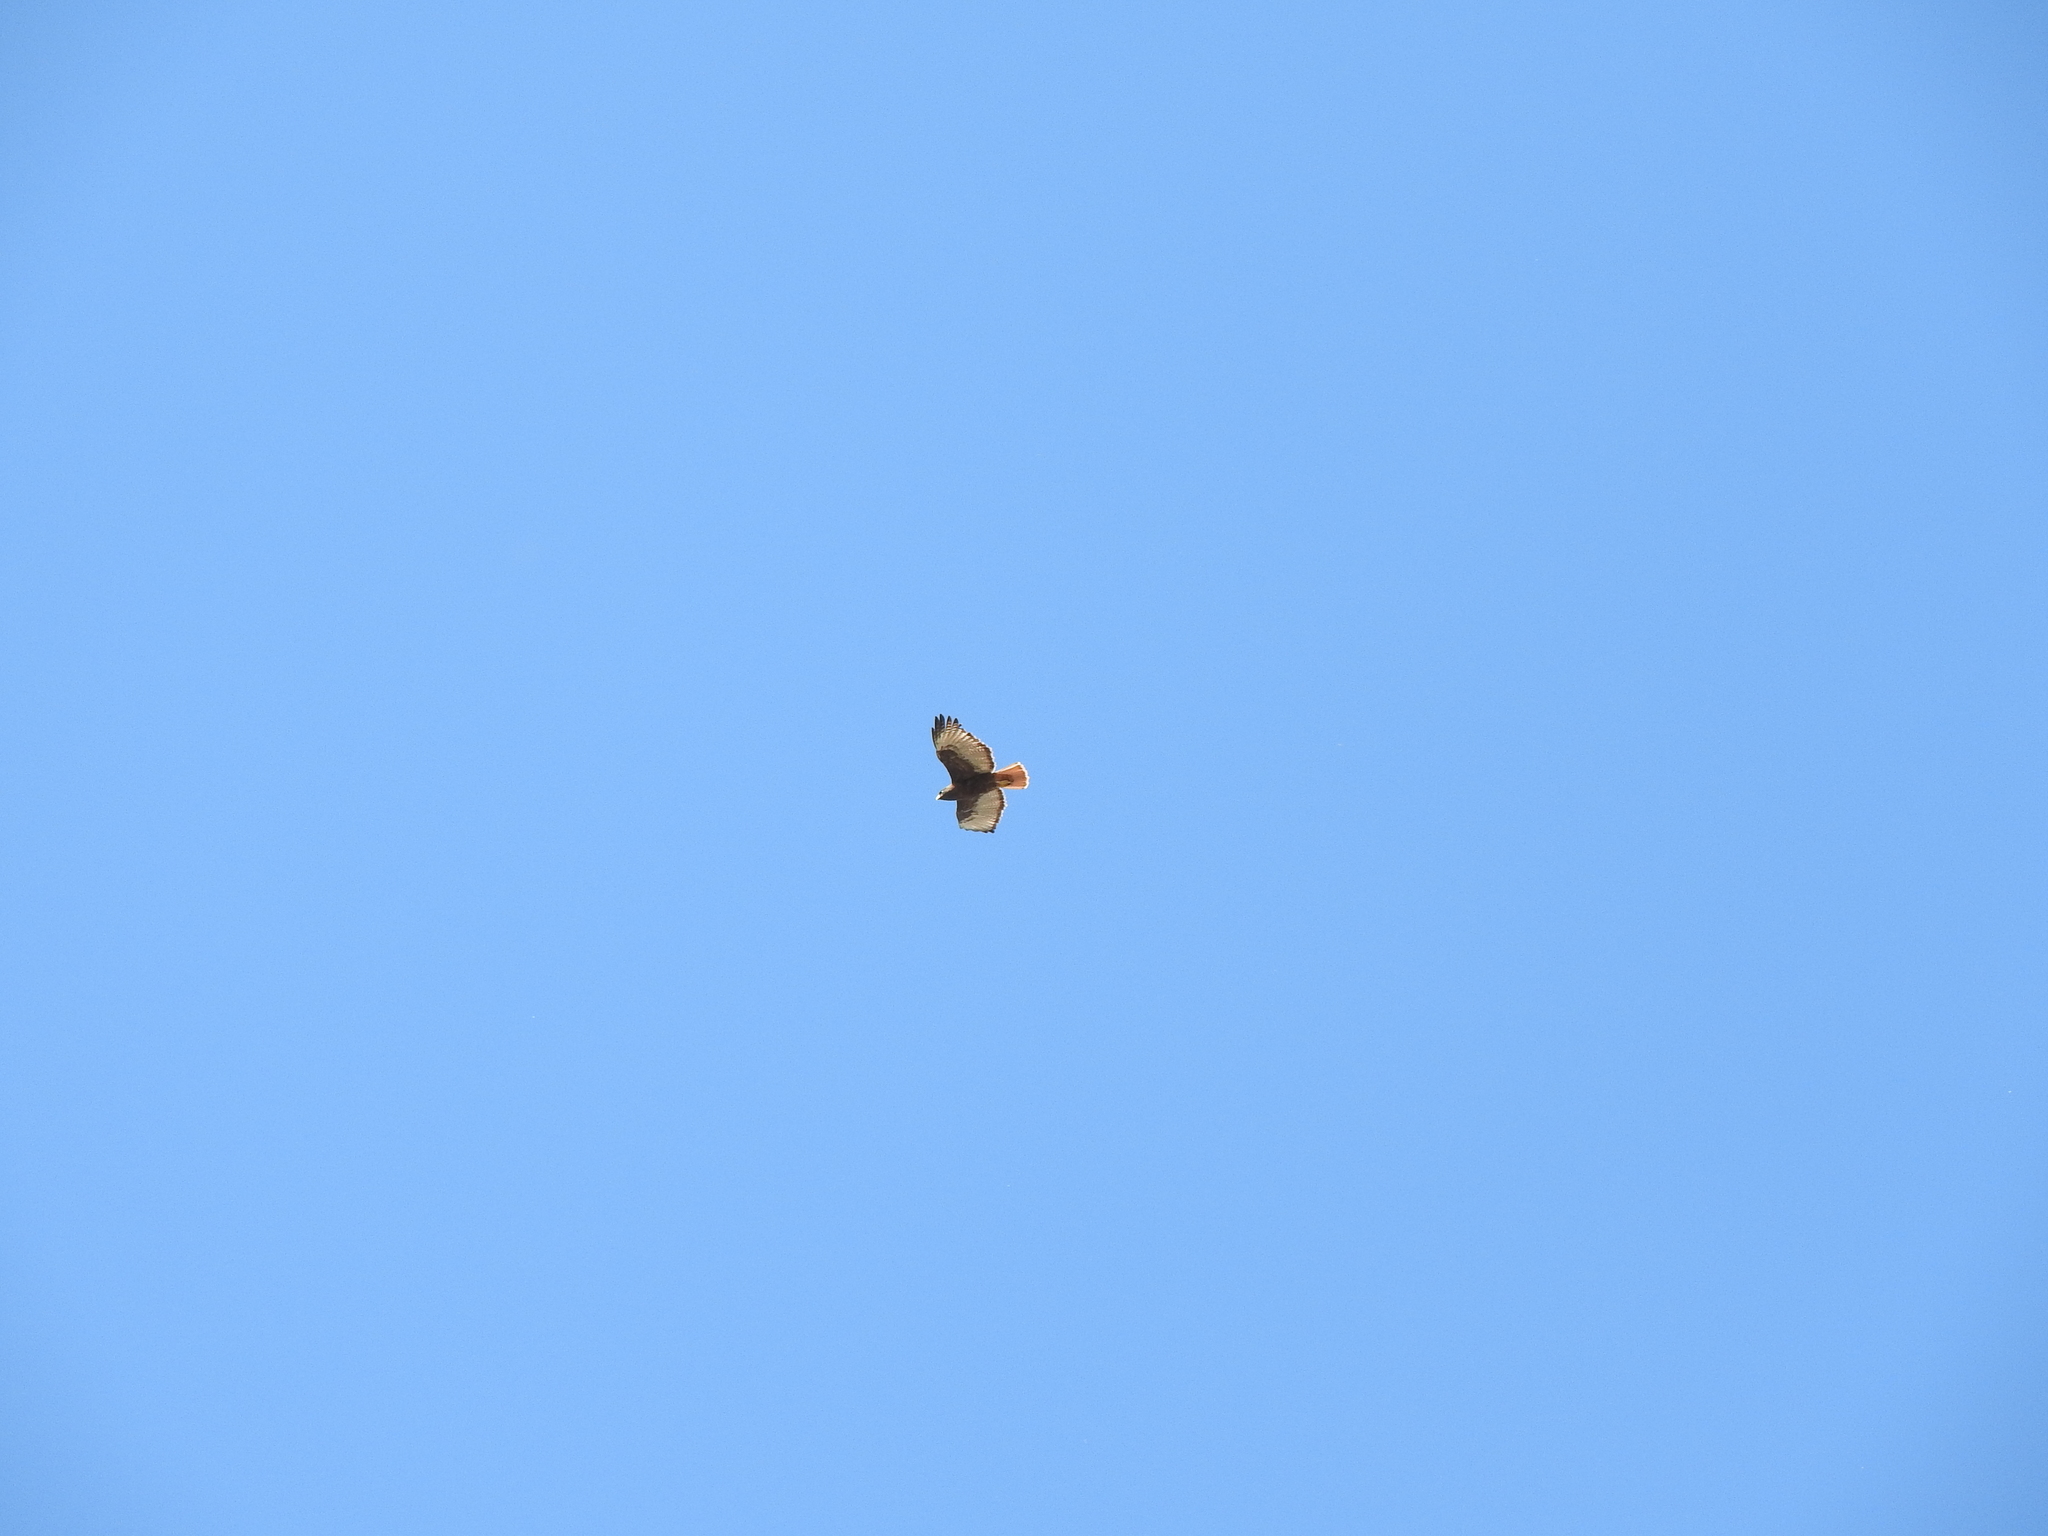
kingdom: Animalia
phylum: Chordata
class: Aves
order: Accipitriformes
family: Accipitridae
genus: Buteo
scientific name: Buteo jamaicensis
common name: Red-tailed hawk
